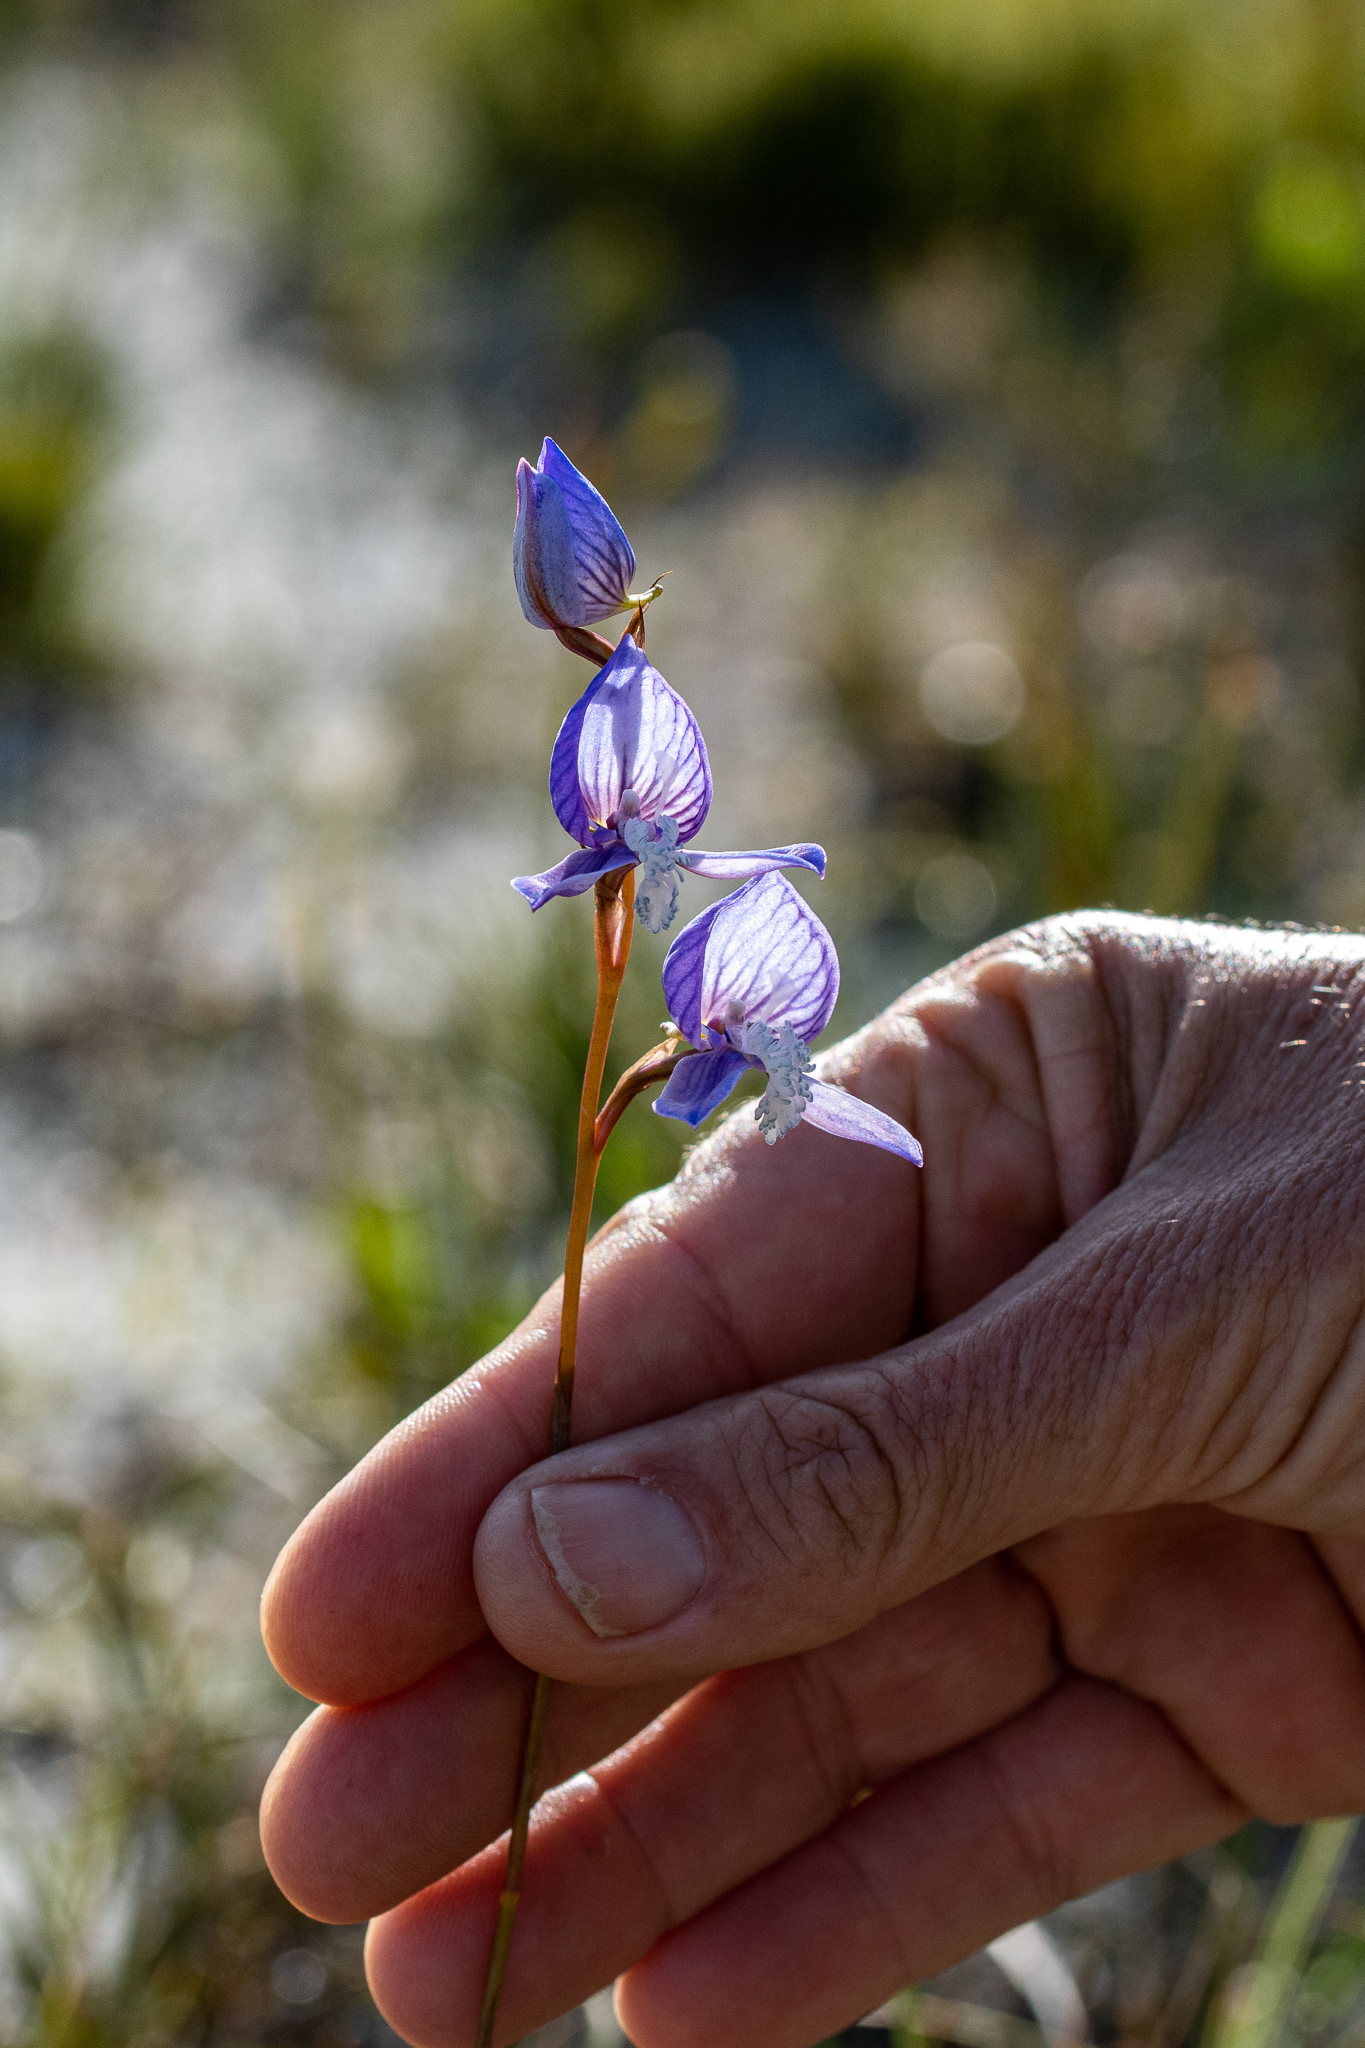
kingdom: Plantae
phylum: Tracheophyta
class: Liliopsida
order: Asparagales
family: Orchidaceae
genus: Disa
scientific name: Disa venusta
